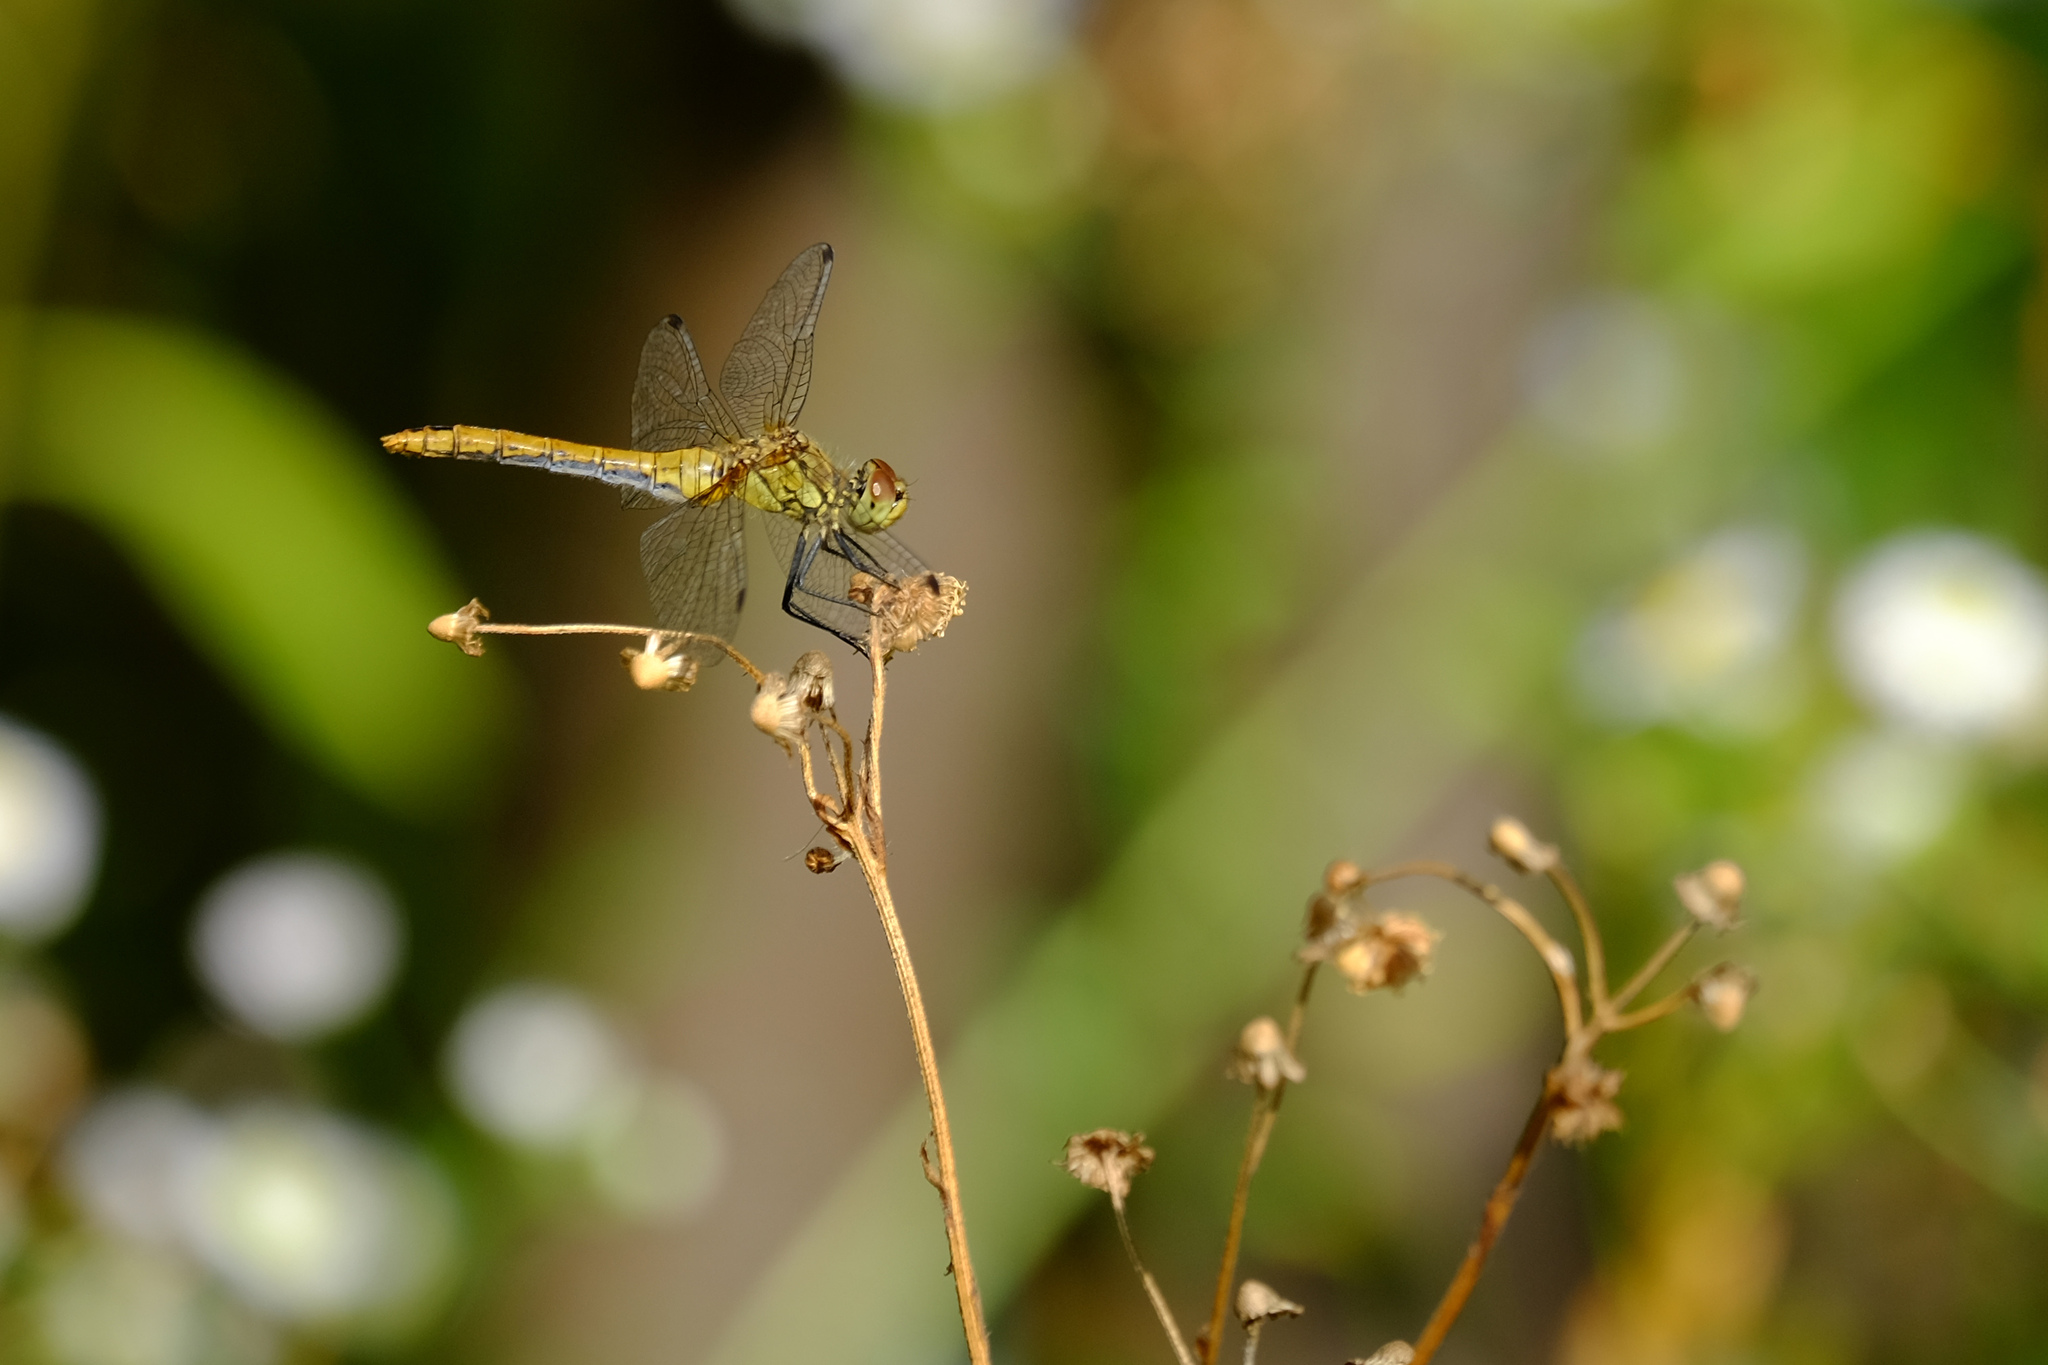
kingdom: Animalia
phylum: Arthropoda
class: Insecta
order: Odonata
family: Libellulidae
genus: Sympetrum
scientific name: Sympetrum sanguineum
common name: Ruddy darter
